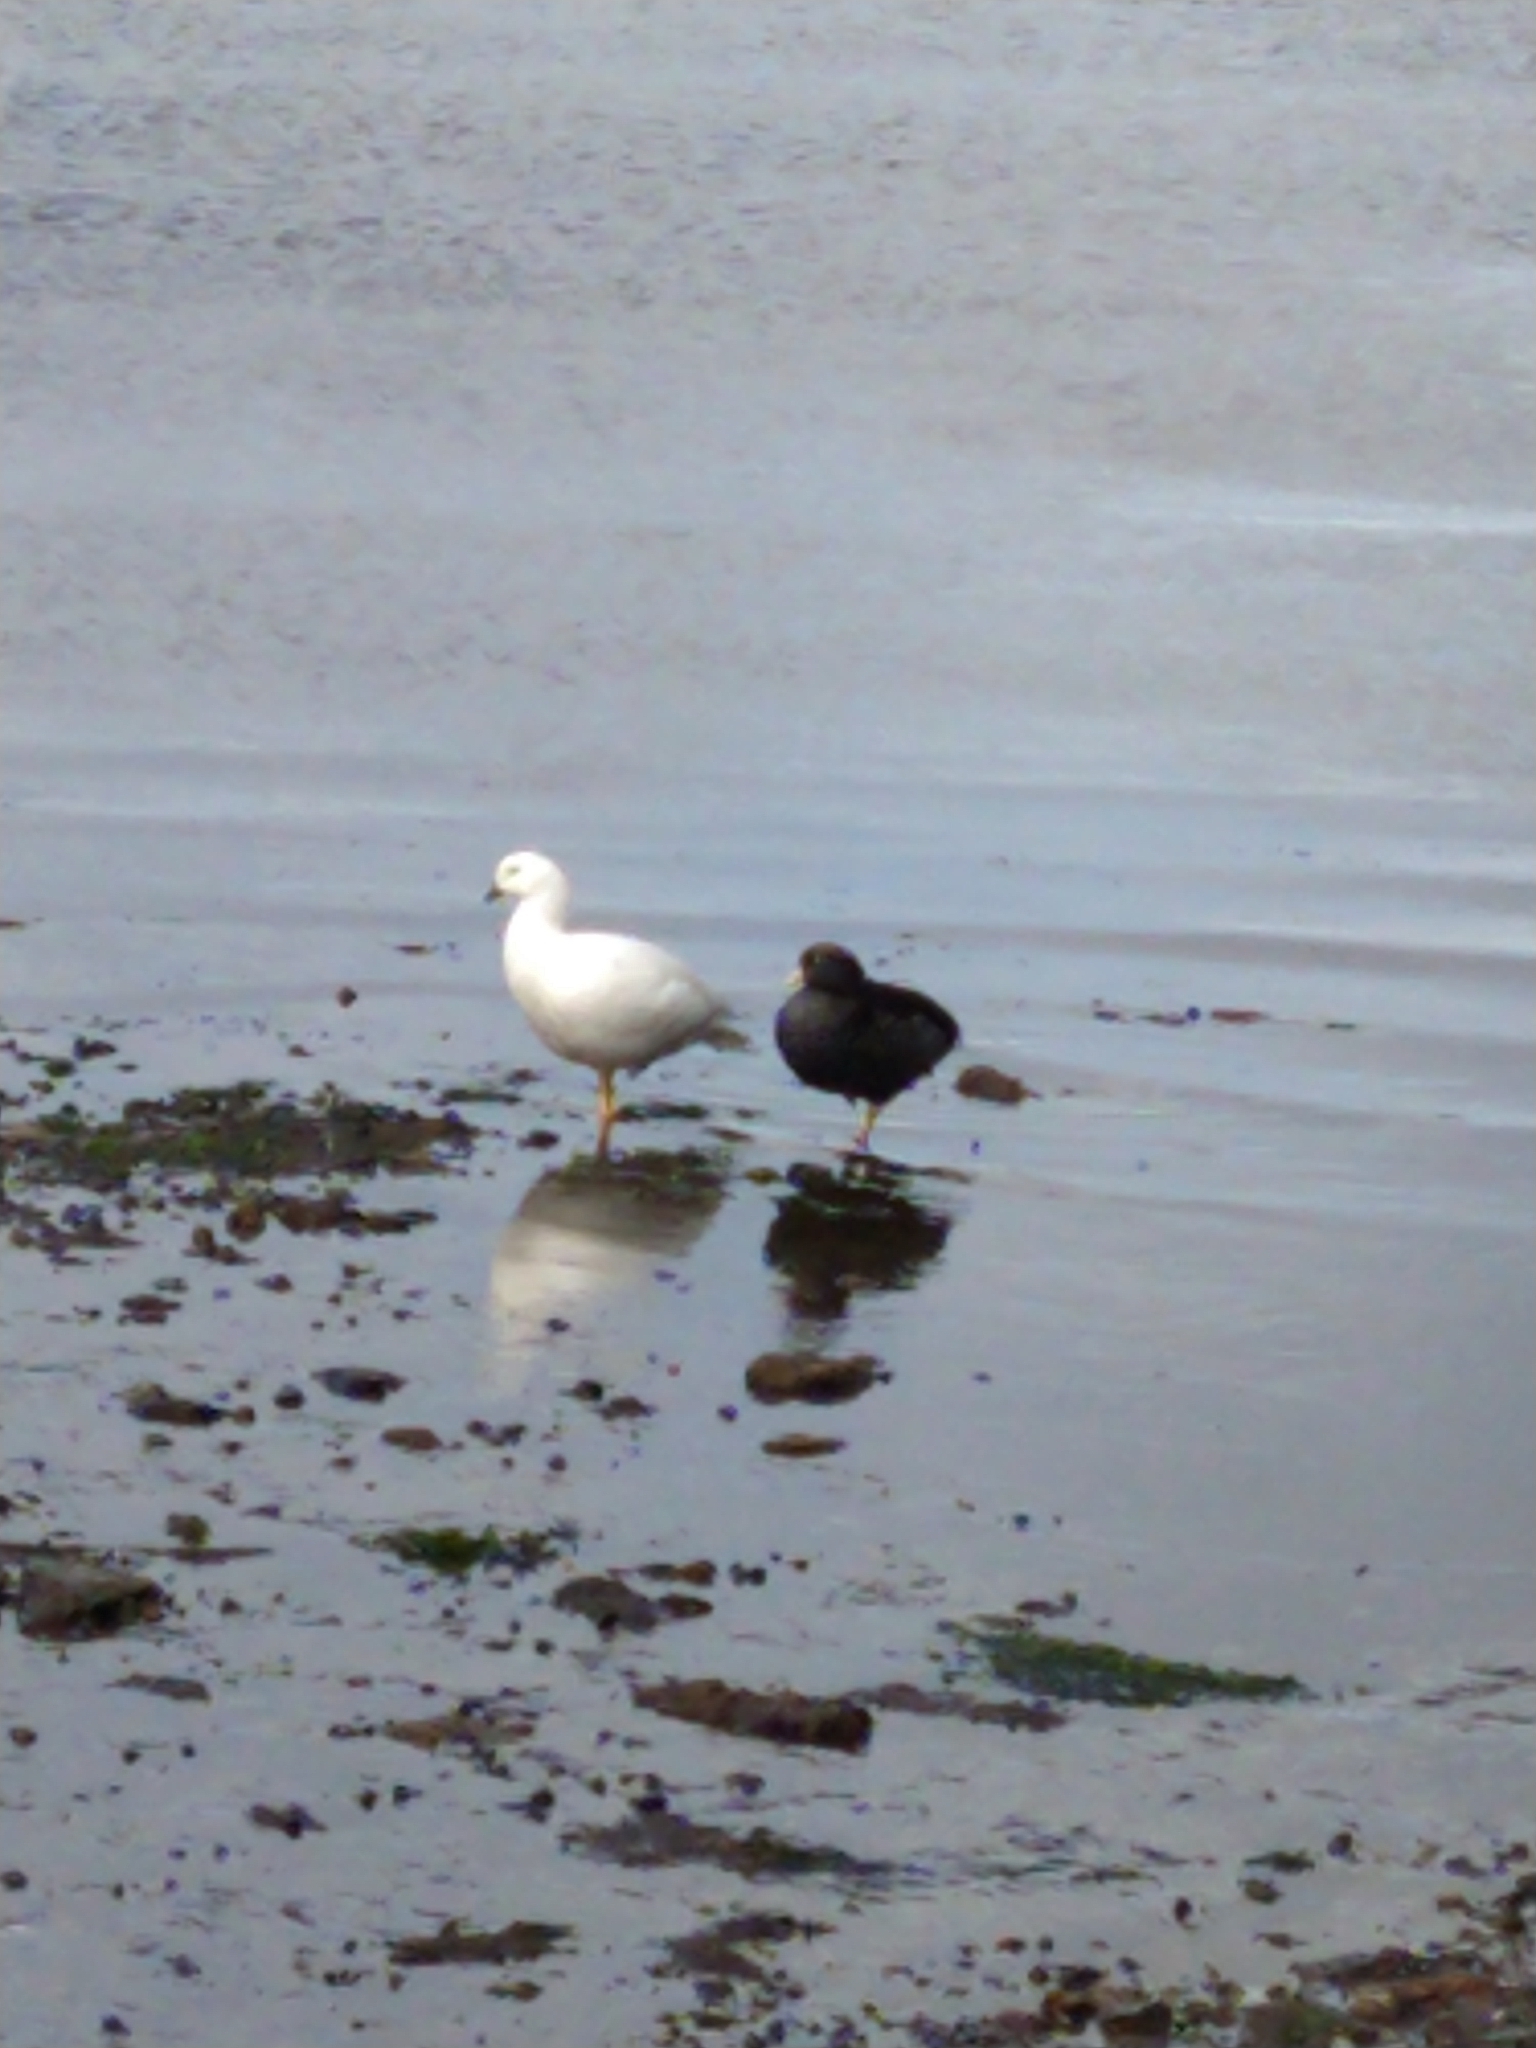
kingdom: Animalia
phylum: Chordata
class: Aves
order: Anseriformes
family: Anatidae
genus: Chloephaga
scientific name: Chloephaga hybrida
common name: Kelp goose
